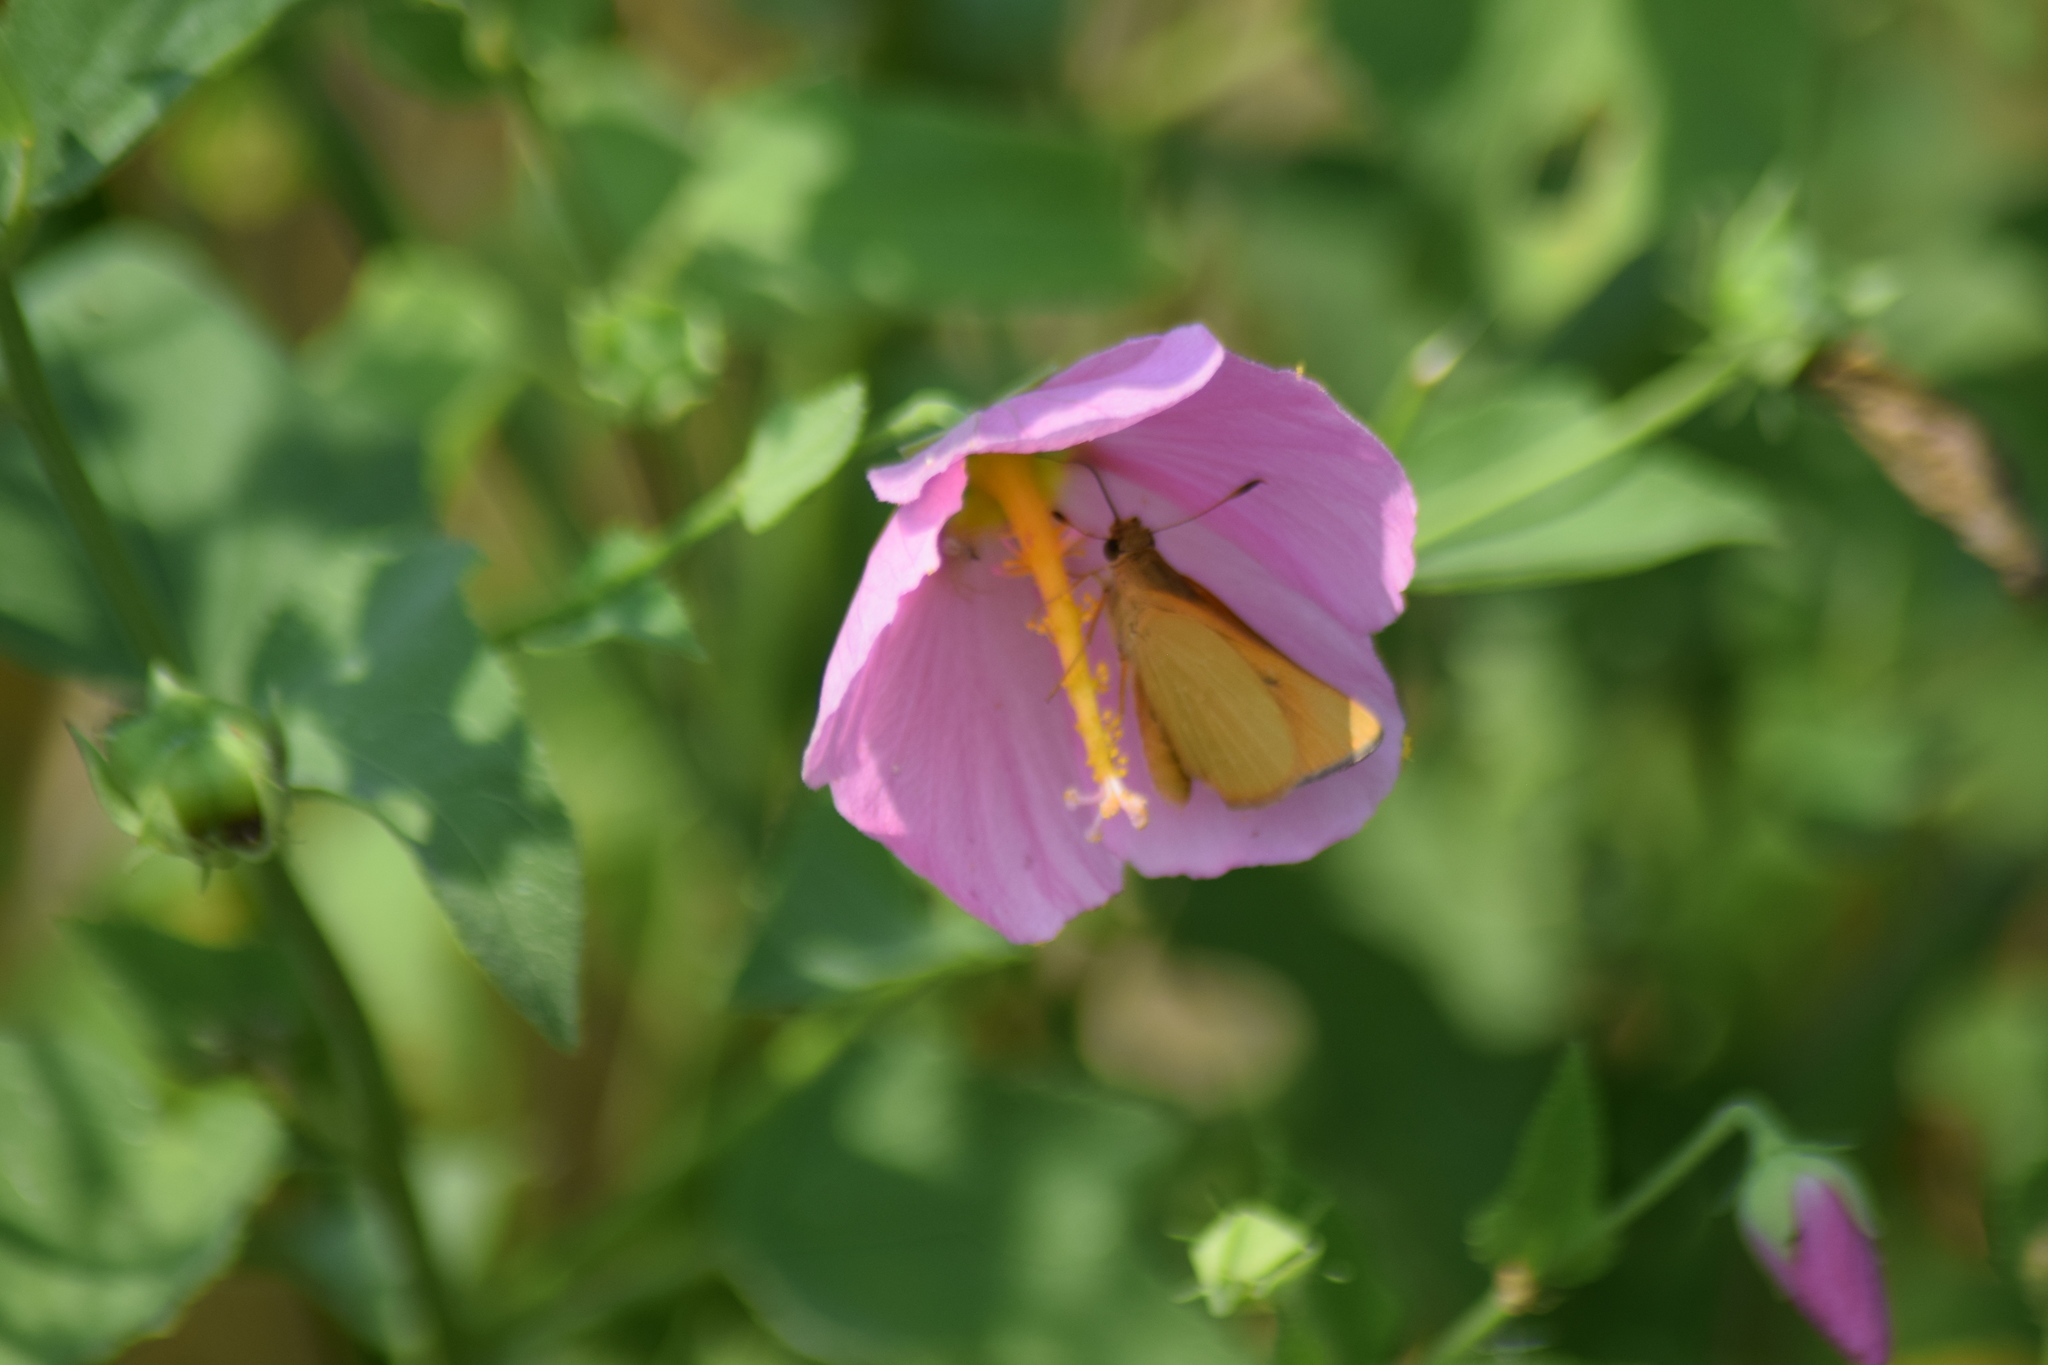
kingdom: Animalia
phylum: Arthropoda
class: Insecta
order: Lepidoptera
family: Hesperiidae
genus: Problema
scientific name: Problema bulenta
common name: Rare skipper
